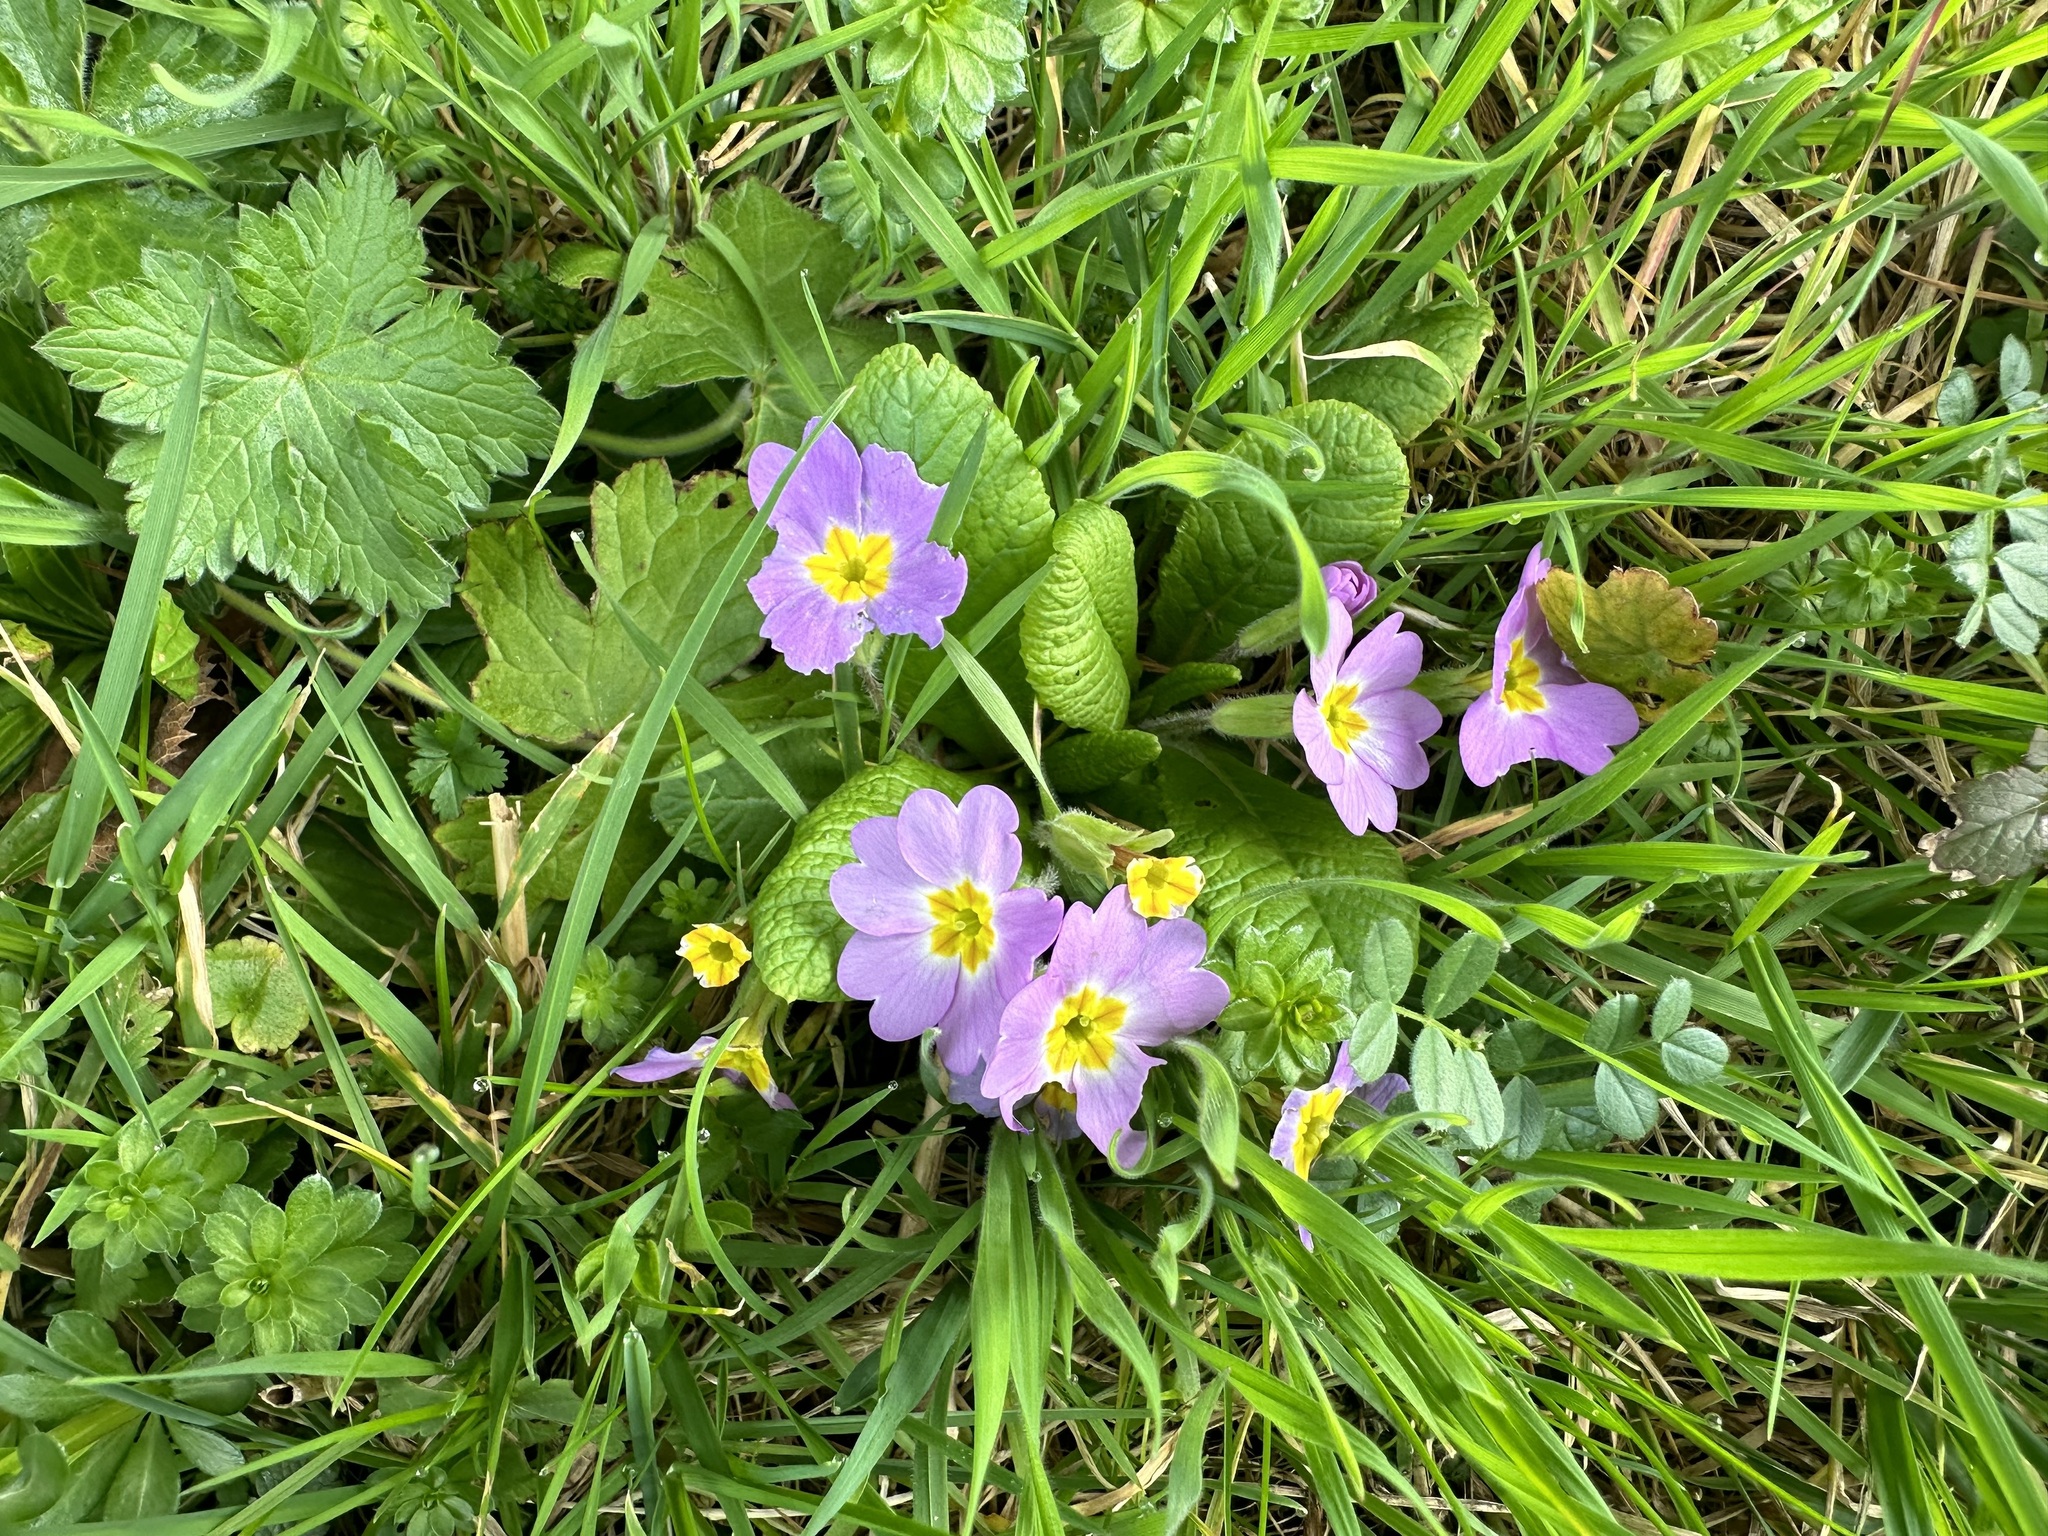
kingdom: Plantae
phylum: Tracheophyta
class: Magnoliopsida
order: Ericales
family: Primulaceae
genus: Primula
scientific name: Primula vulgaris
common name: Primrose
